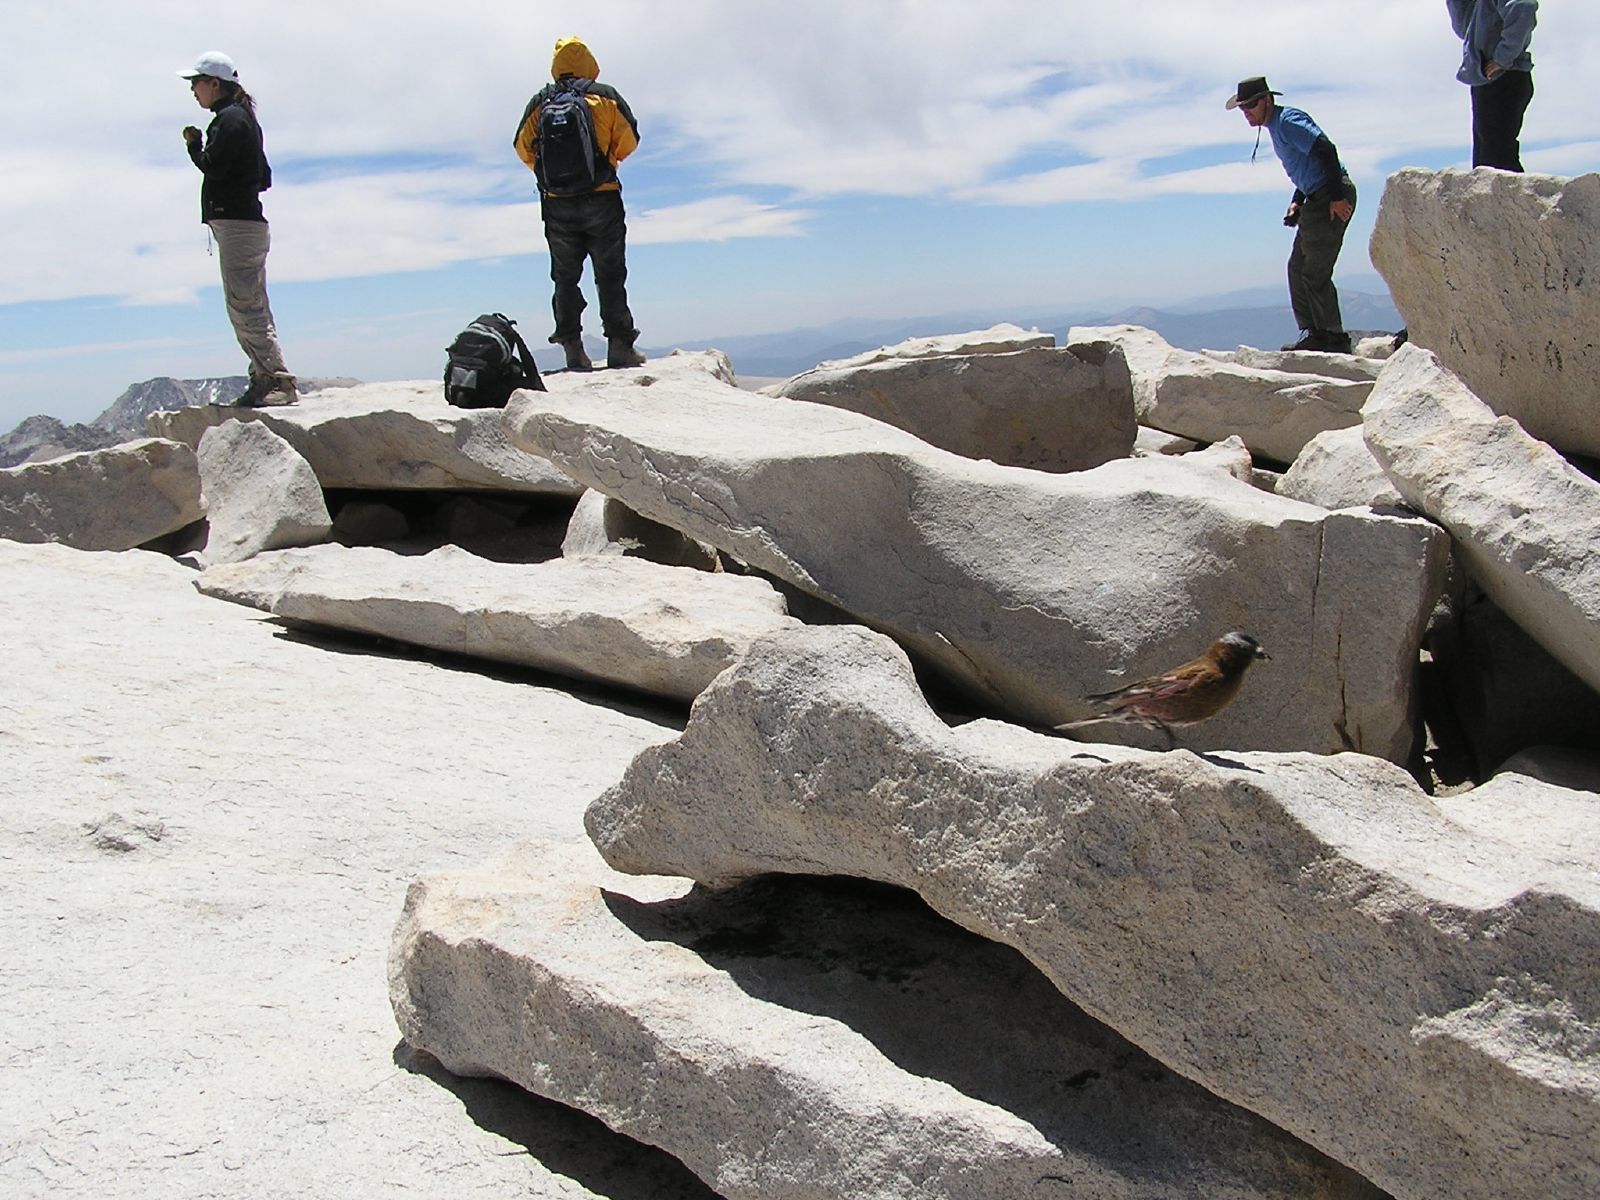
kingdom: Animalia
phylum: Chordata
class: Aves
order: Passeriformes
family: Fringillidae
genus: Leucosticte
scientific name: Leucosticte tephrocotis
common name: Gray-crowned rosy-finch
